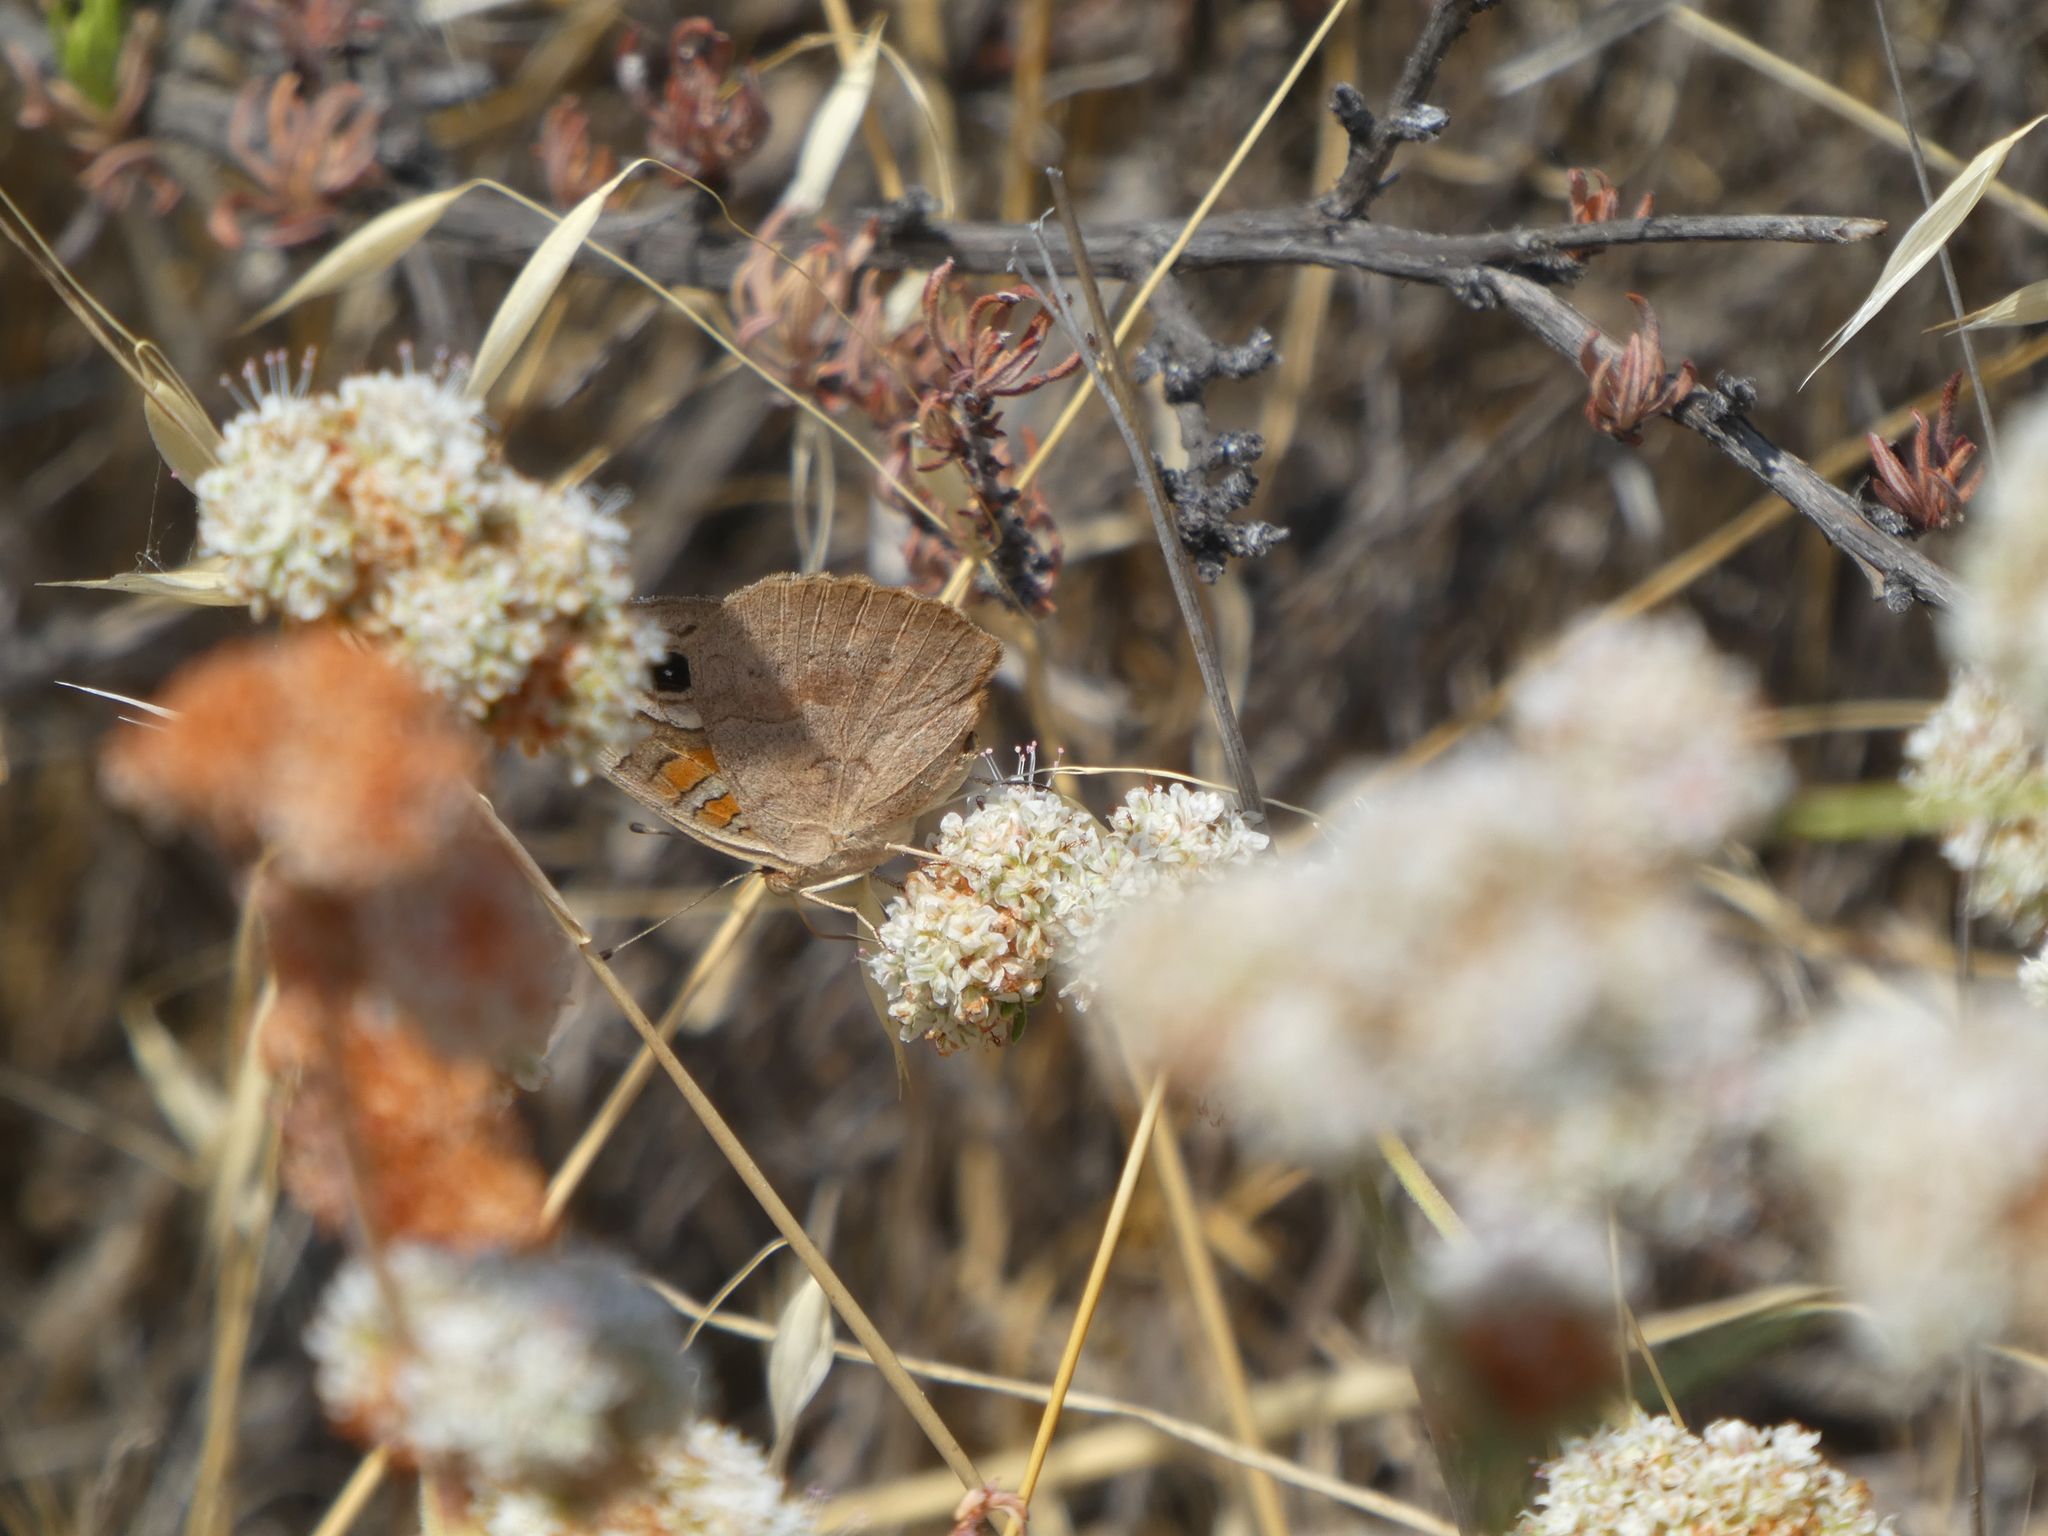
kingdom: Animalia
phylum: Arthropoda
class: Insecta
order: Lepidoptera
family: Nymphalidae
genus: Junonia
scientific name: Junonia grisea
